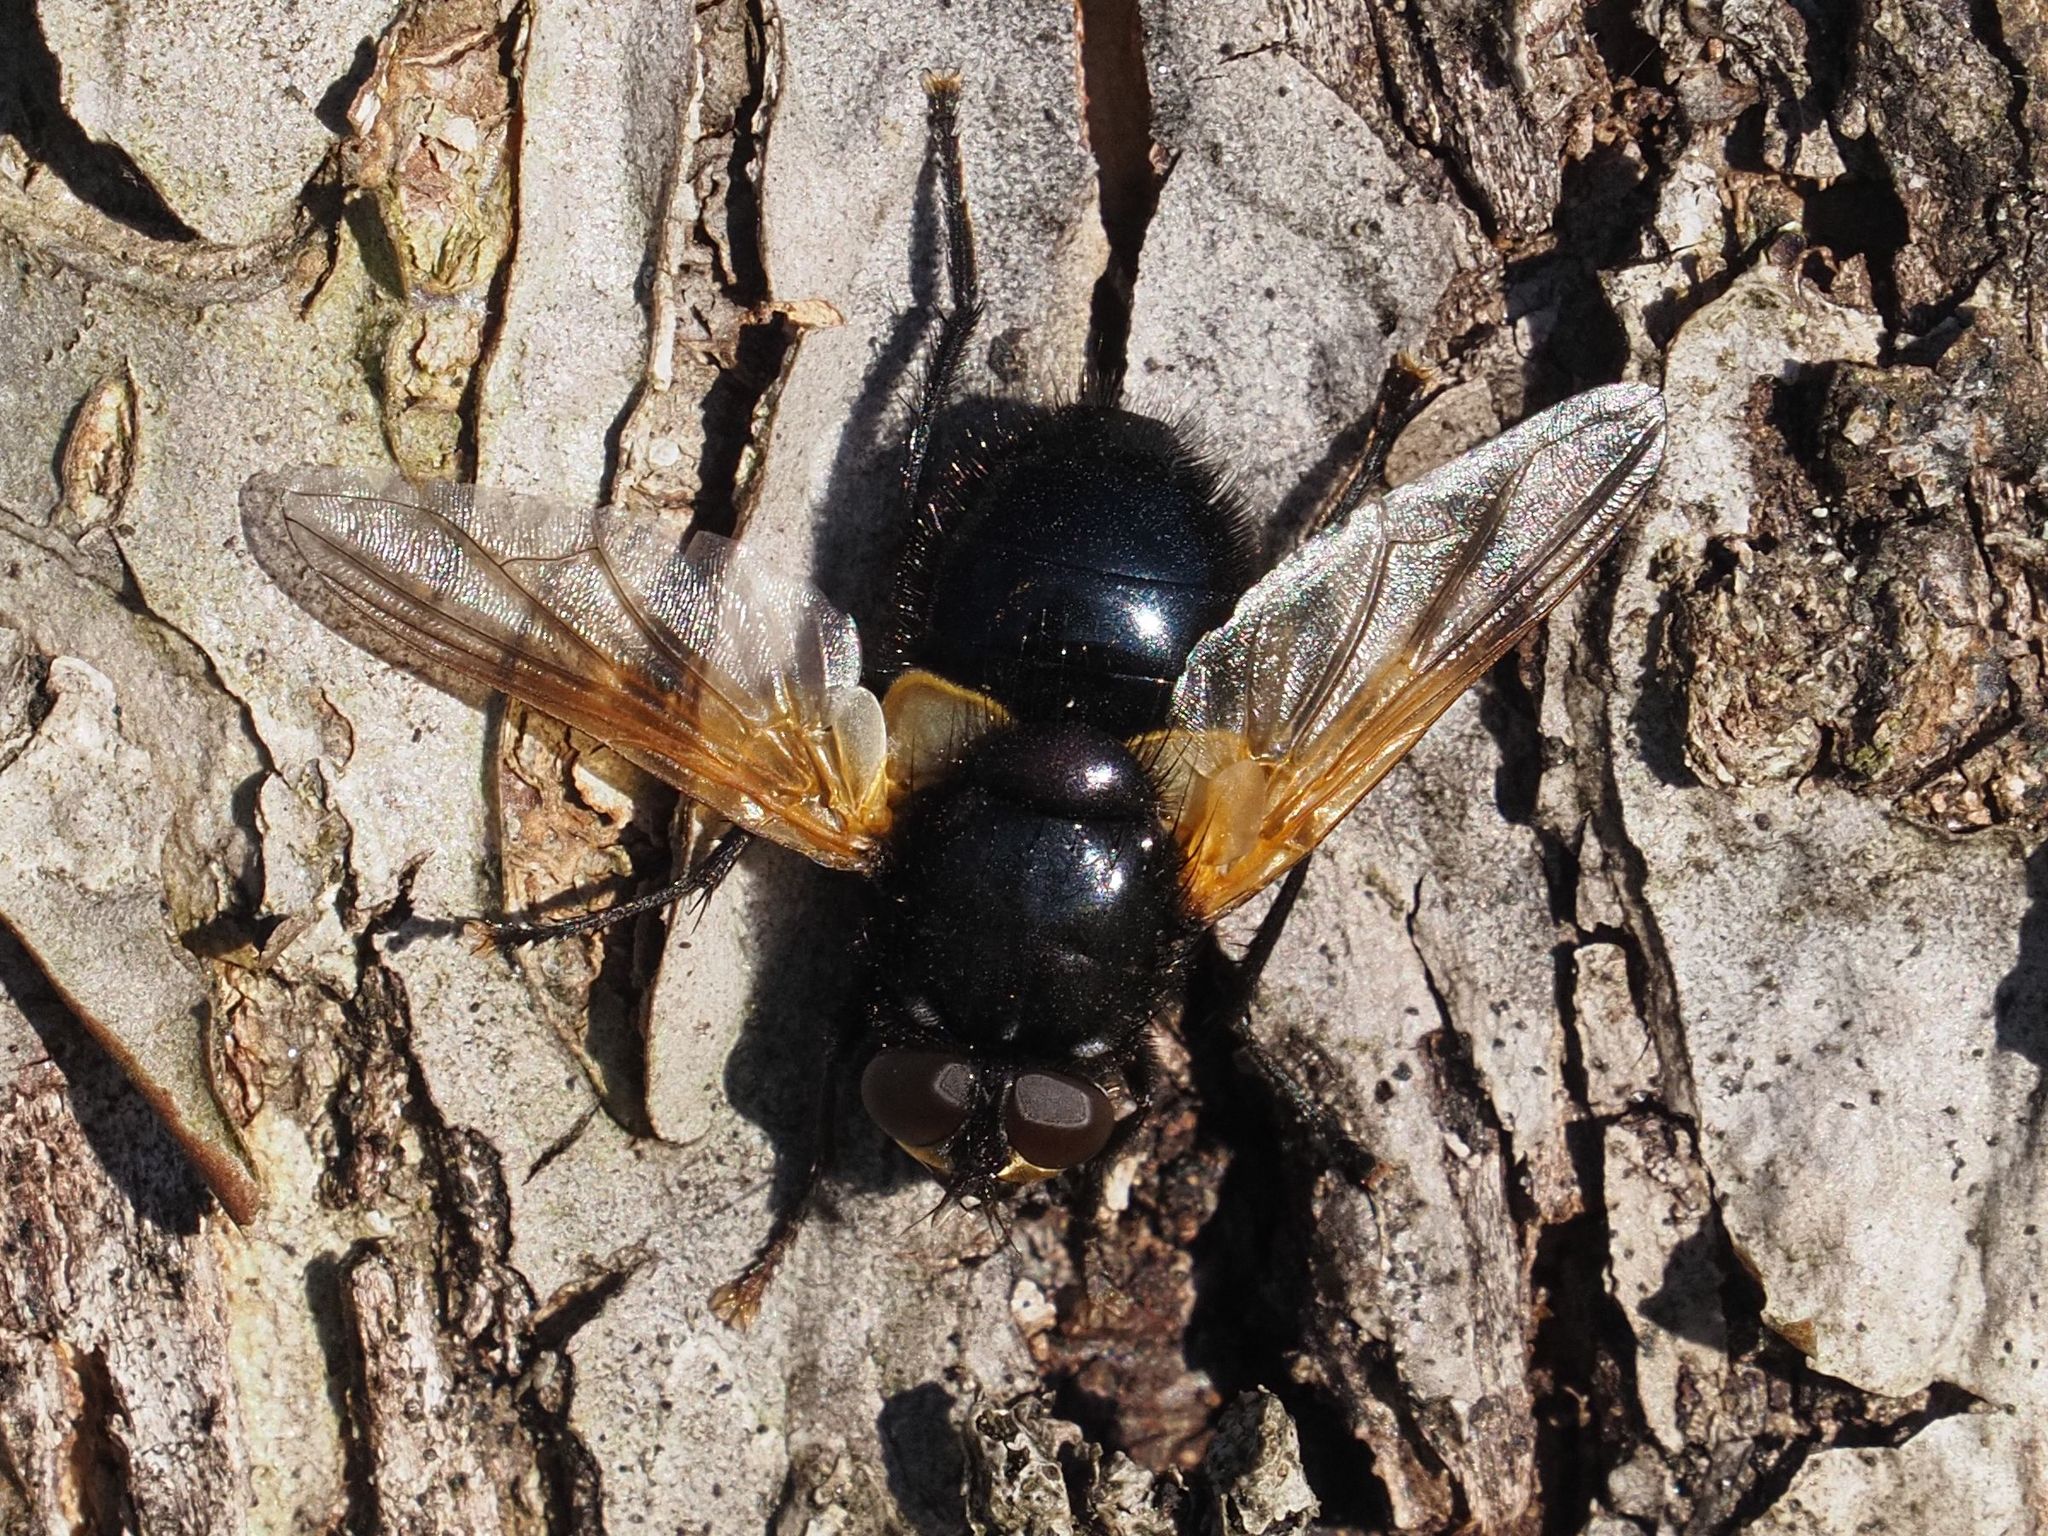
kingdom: Animalia
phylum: Arthropoda
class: Insecta
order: Diptera
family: Muscidae
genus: Mesembrina
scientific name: Mesembrina meridiana
